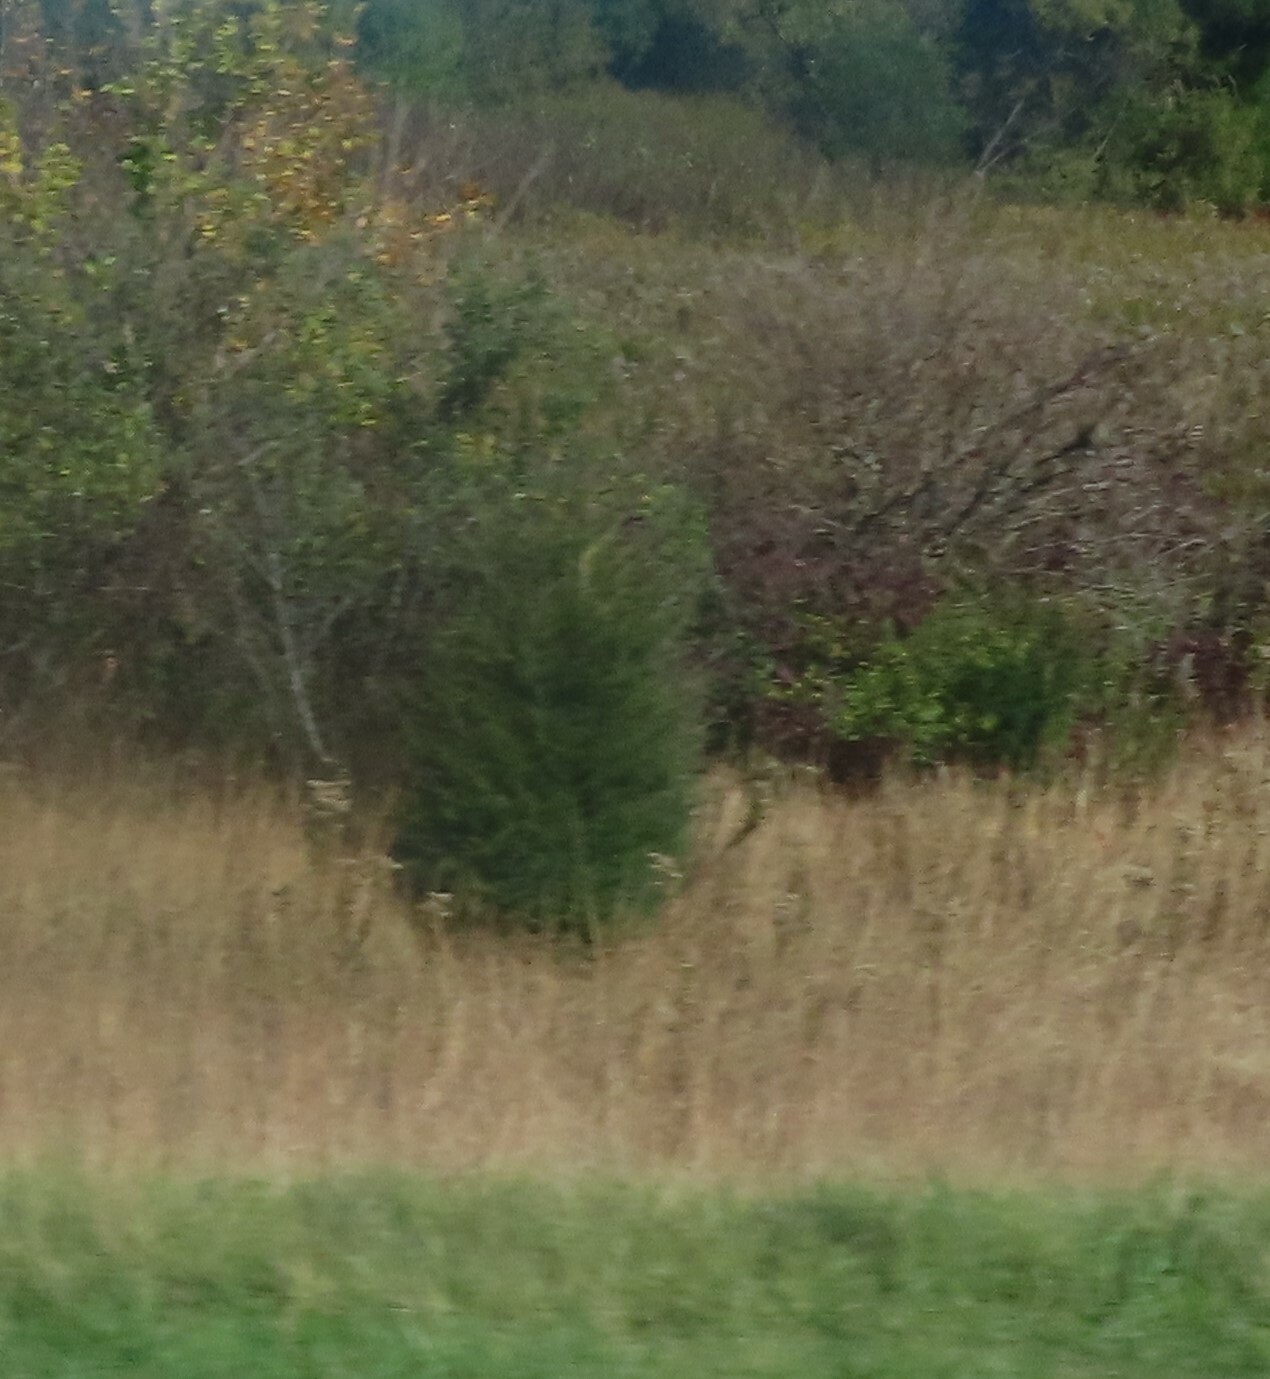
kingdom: Plantae
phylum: Tracheophyta
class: Pinopsida
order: Pinales
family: Cupressaceae
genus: Juniperus
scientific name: Juniperus virginiana
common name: Red juniper
